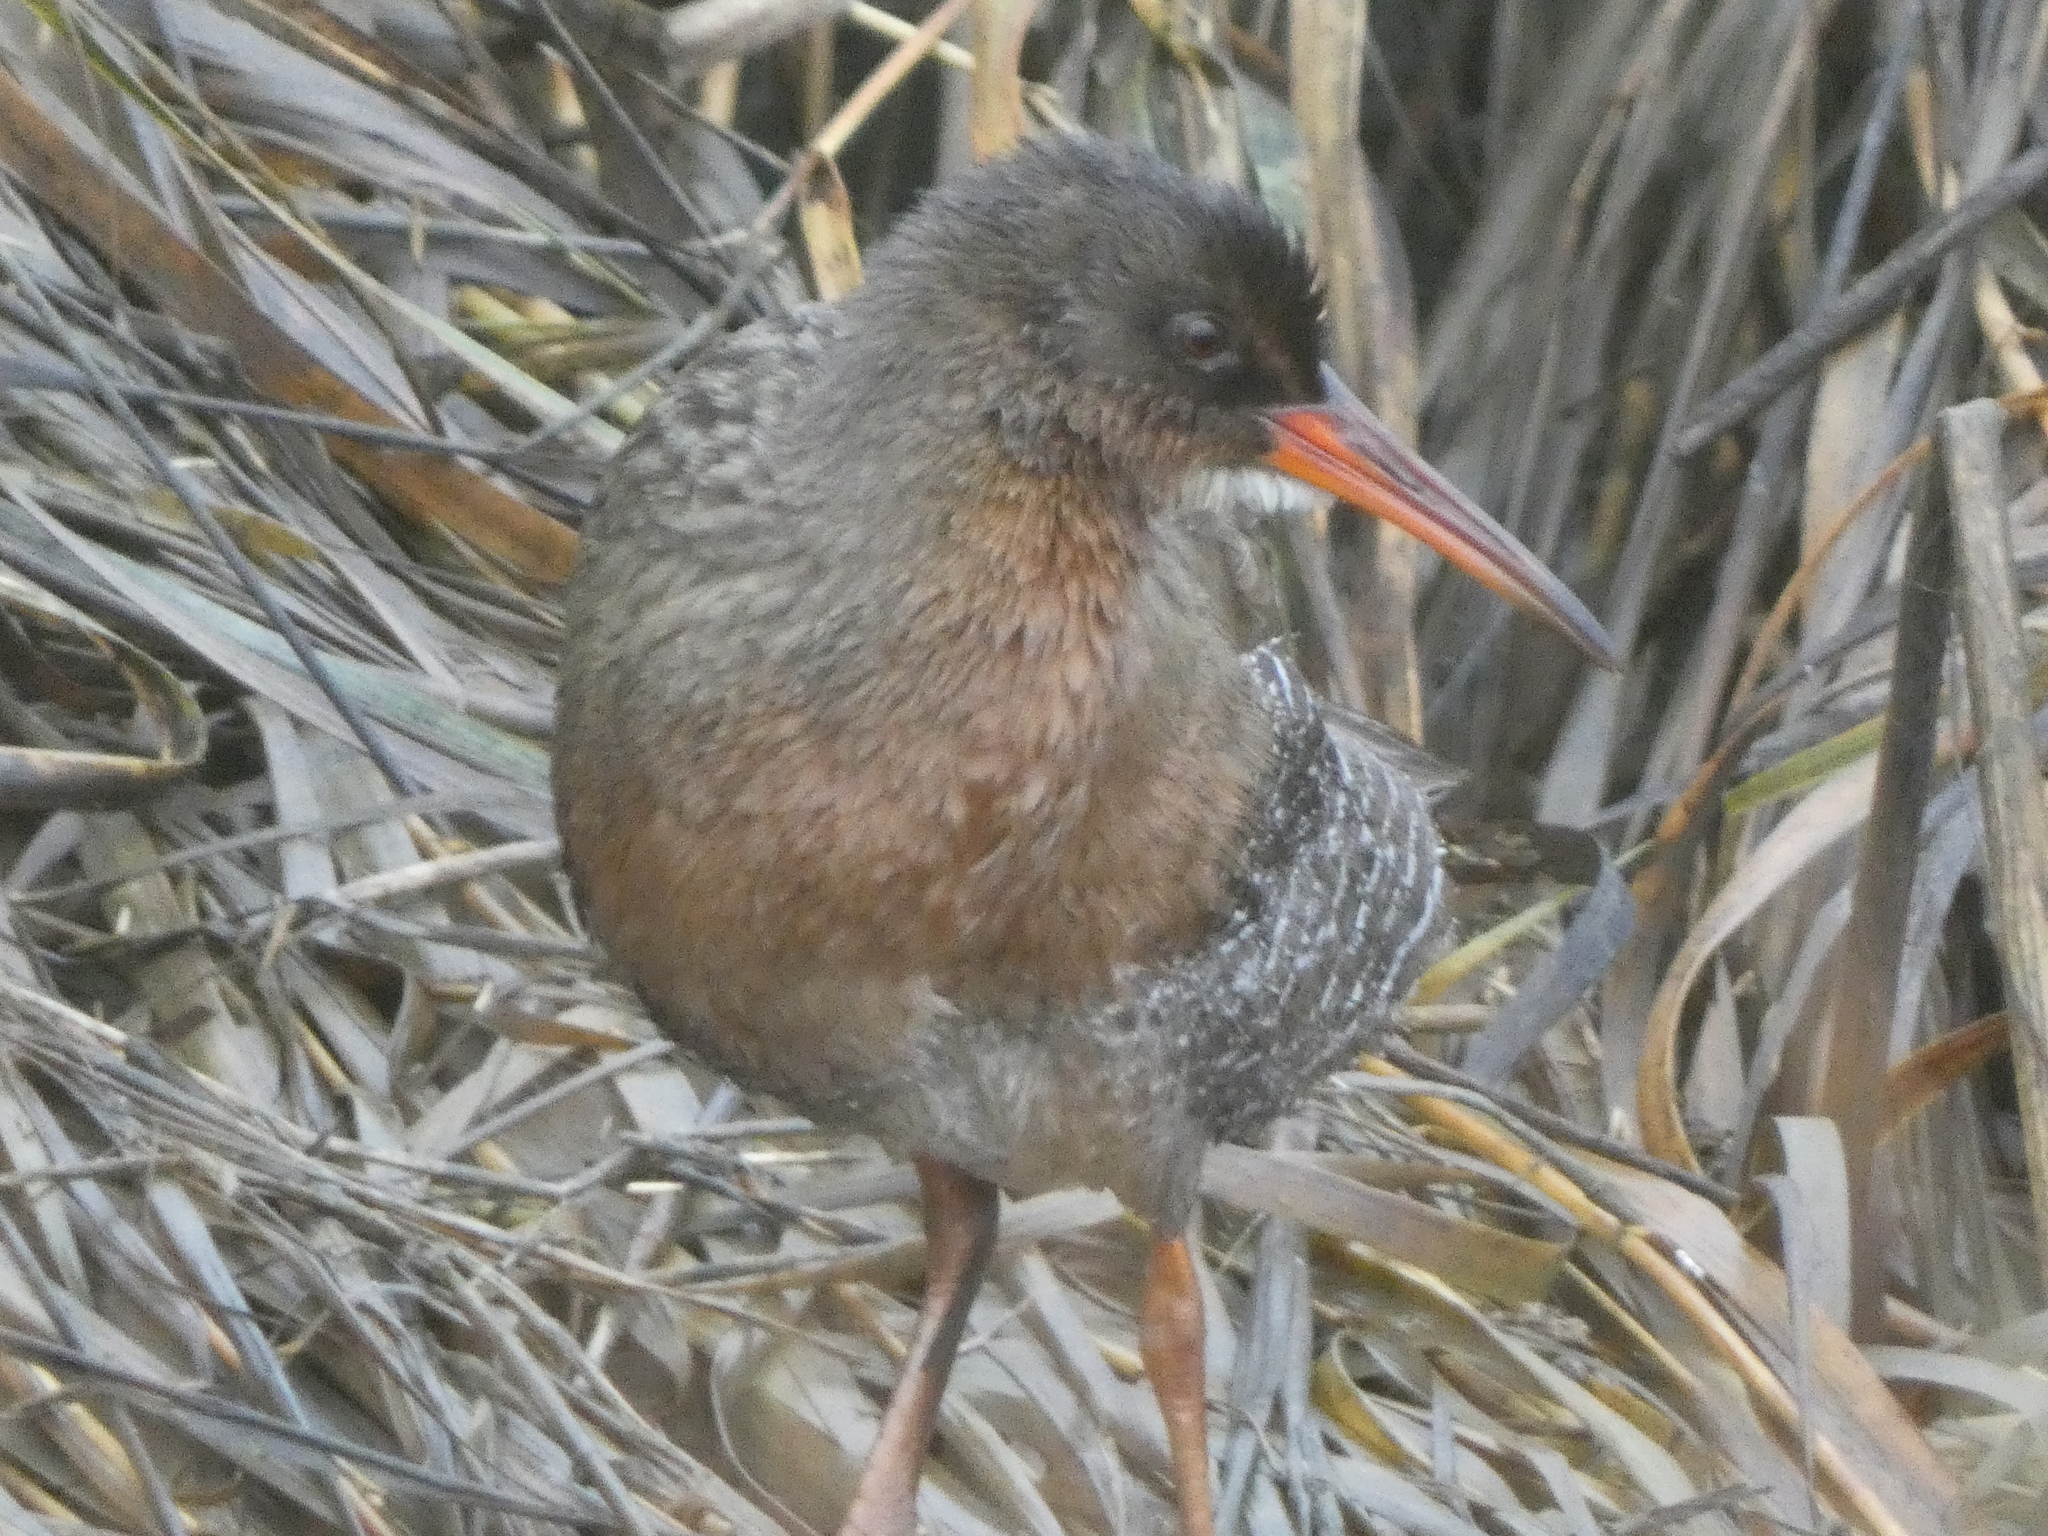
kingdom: Animalia
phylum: Chordata
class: Aves
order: Gruiformes
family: Rallidae
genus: Rallus
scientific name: Rallus obsoletus
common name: Ridgway's rail
